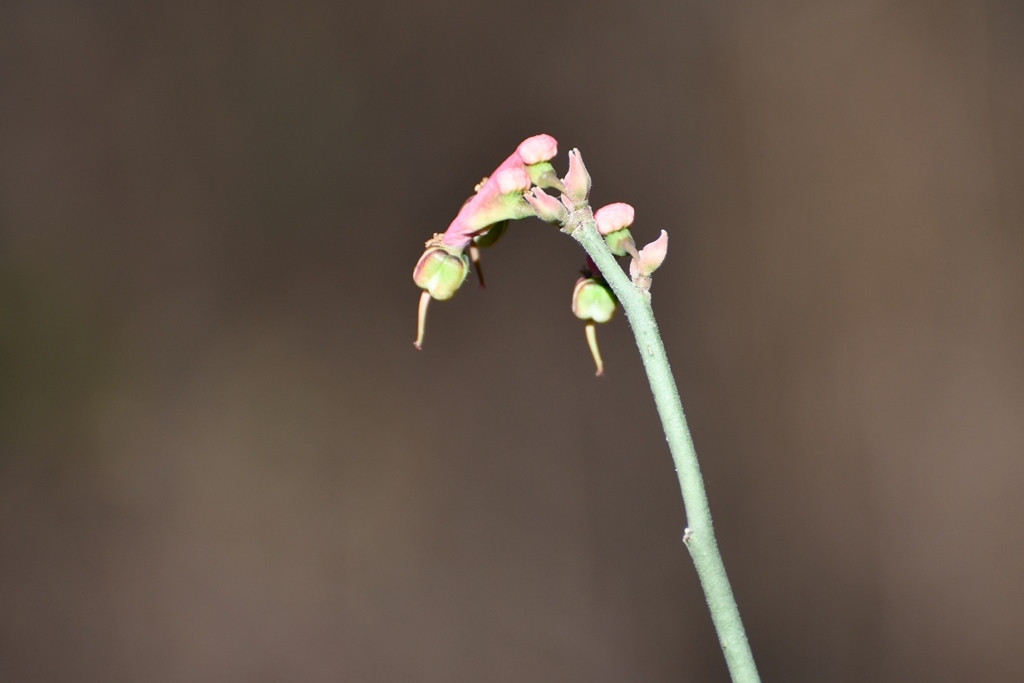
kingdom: Plantae
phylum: Tracheophyta
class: Magnoliopsida
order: Malpighiales
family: Euphorbiaceae
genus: Euphorbia
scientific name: Euphorbia tithymaloides
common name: Slipperplant
